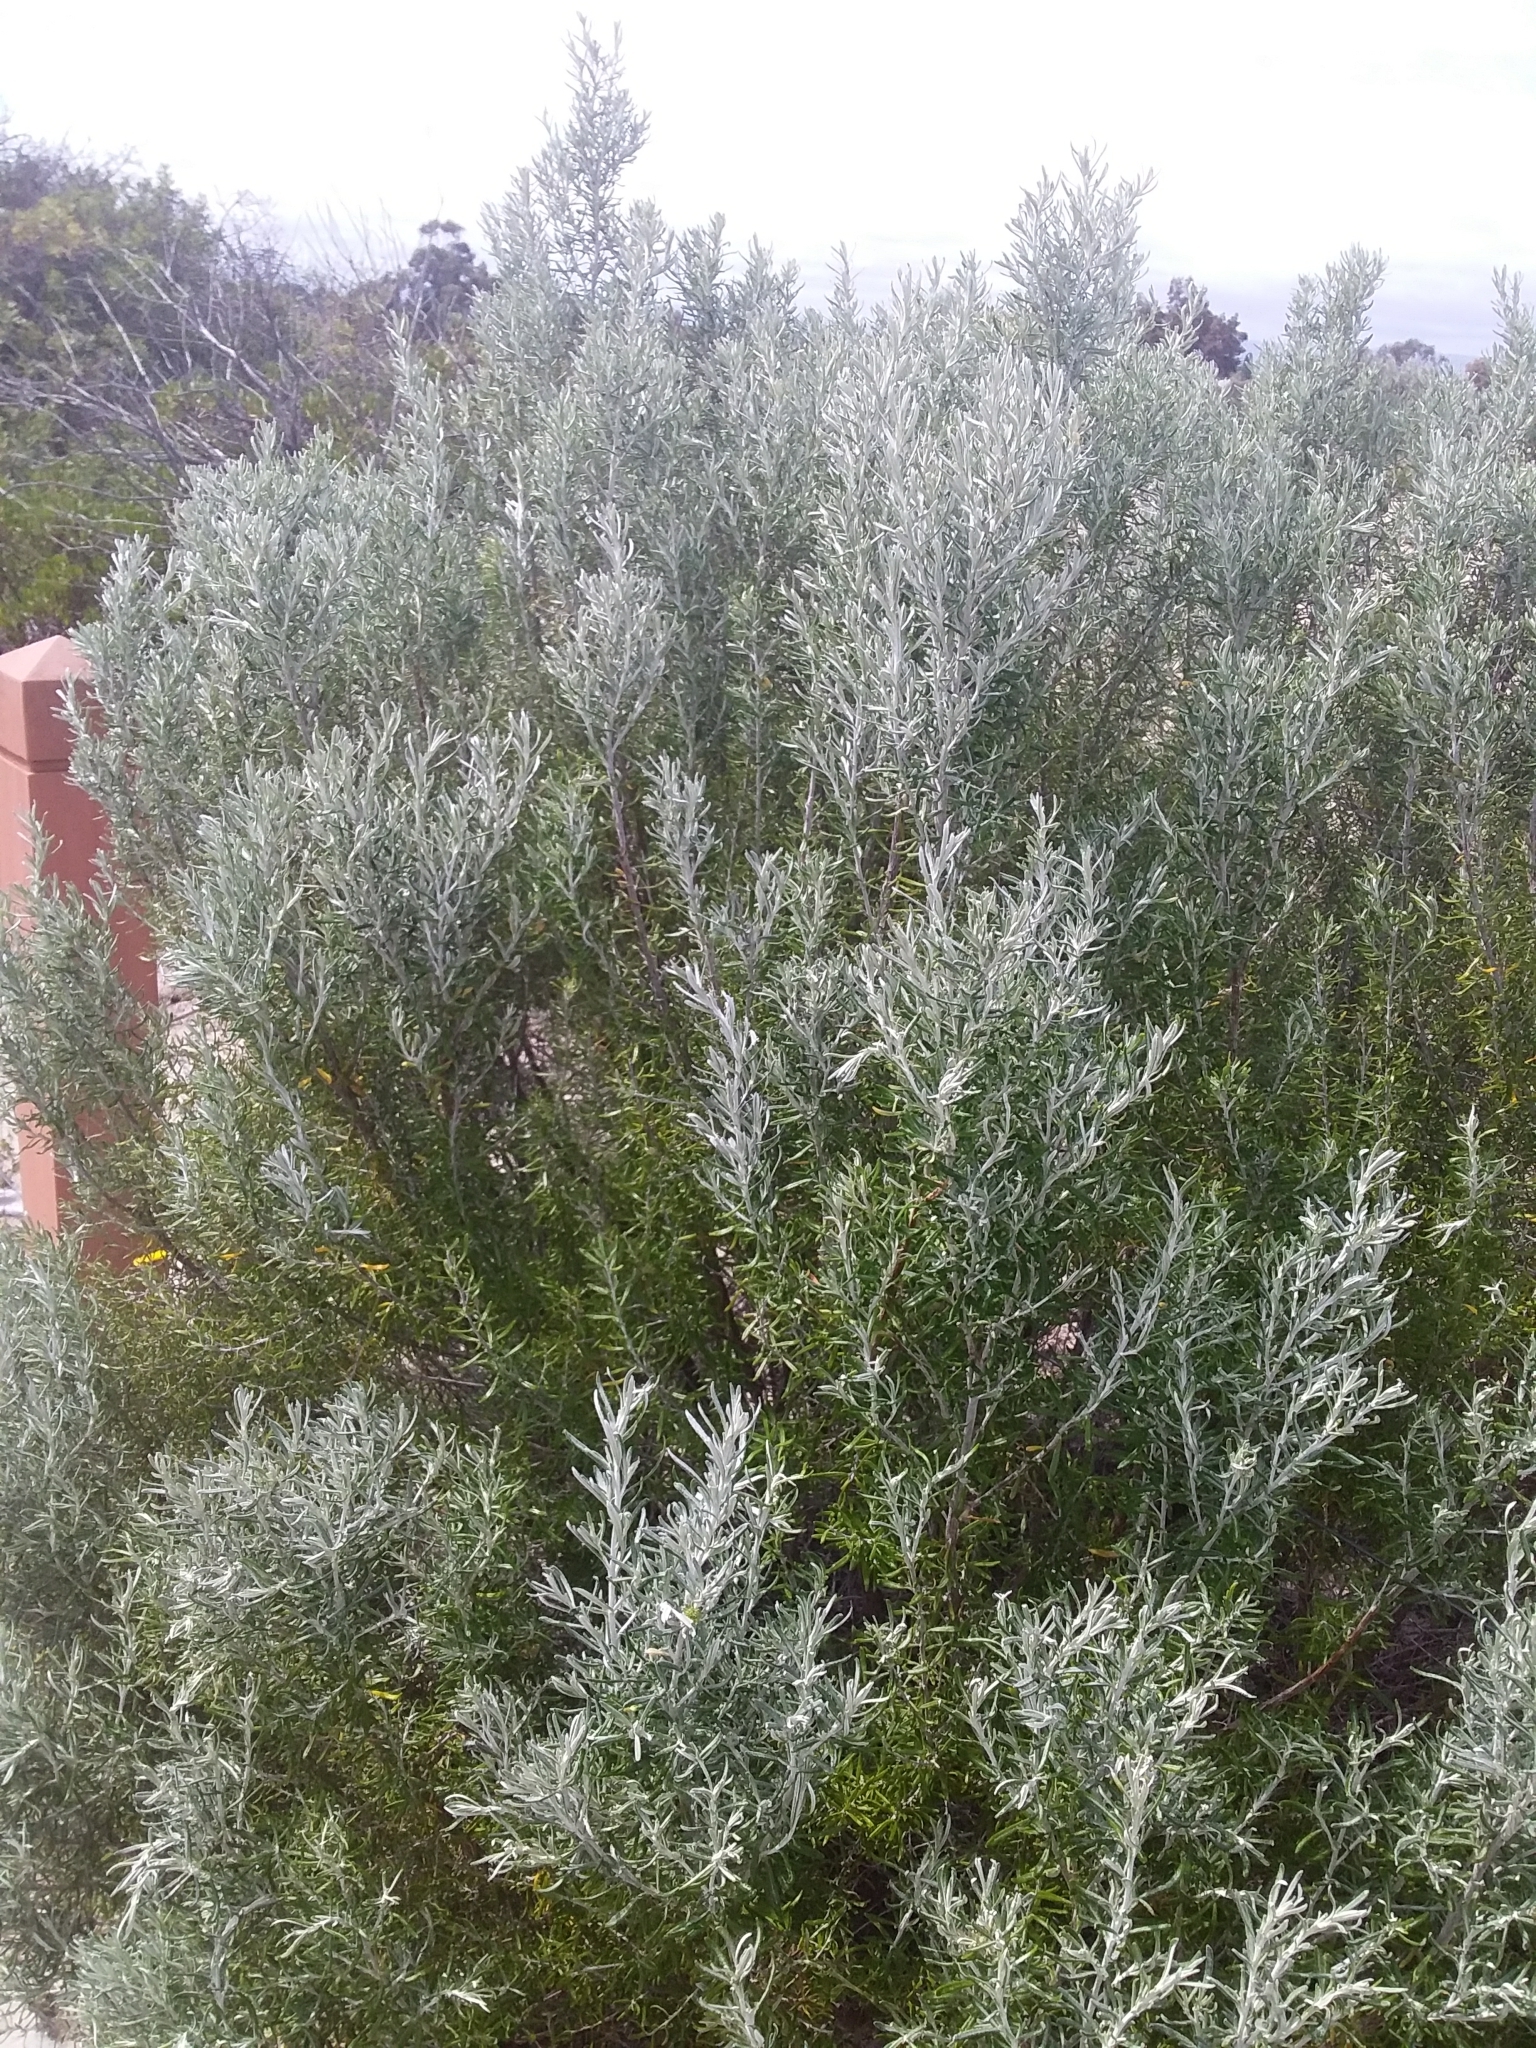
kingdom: Plantae
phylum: Tracheophyta
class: Magnoliopsida
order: Asterales
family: Asteraceae
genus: Olearia
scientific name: Olearia axillaris
